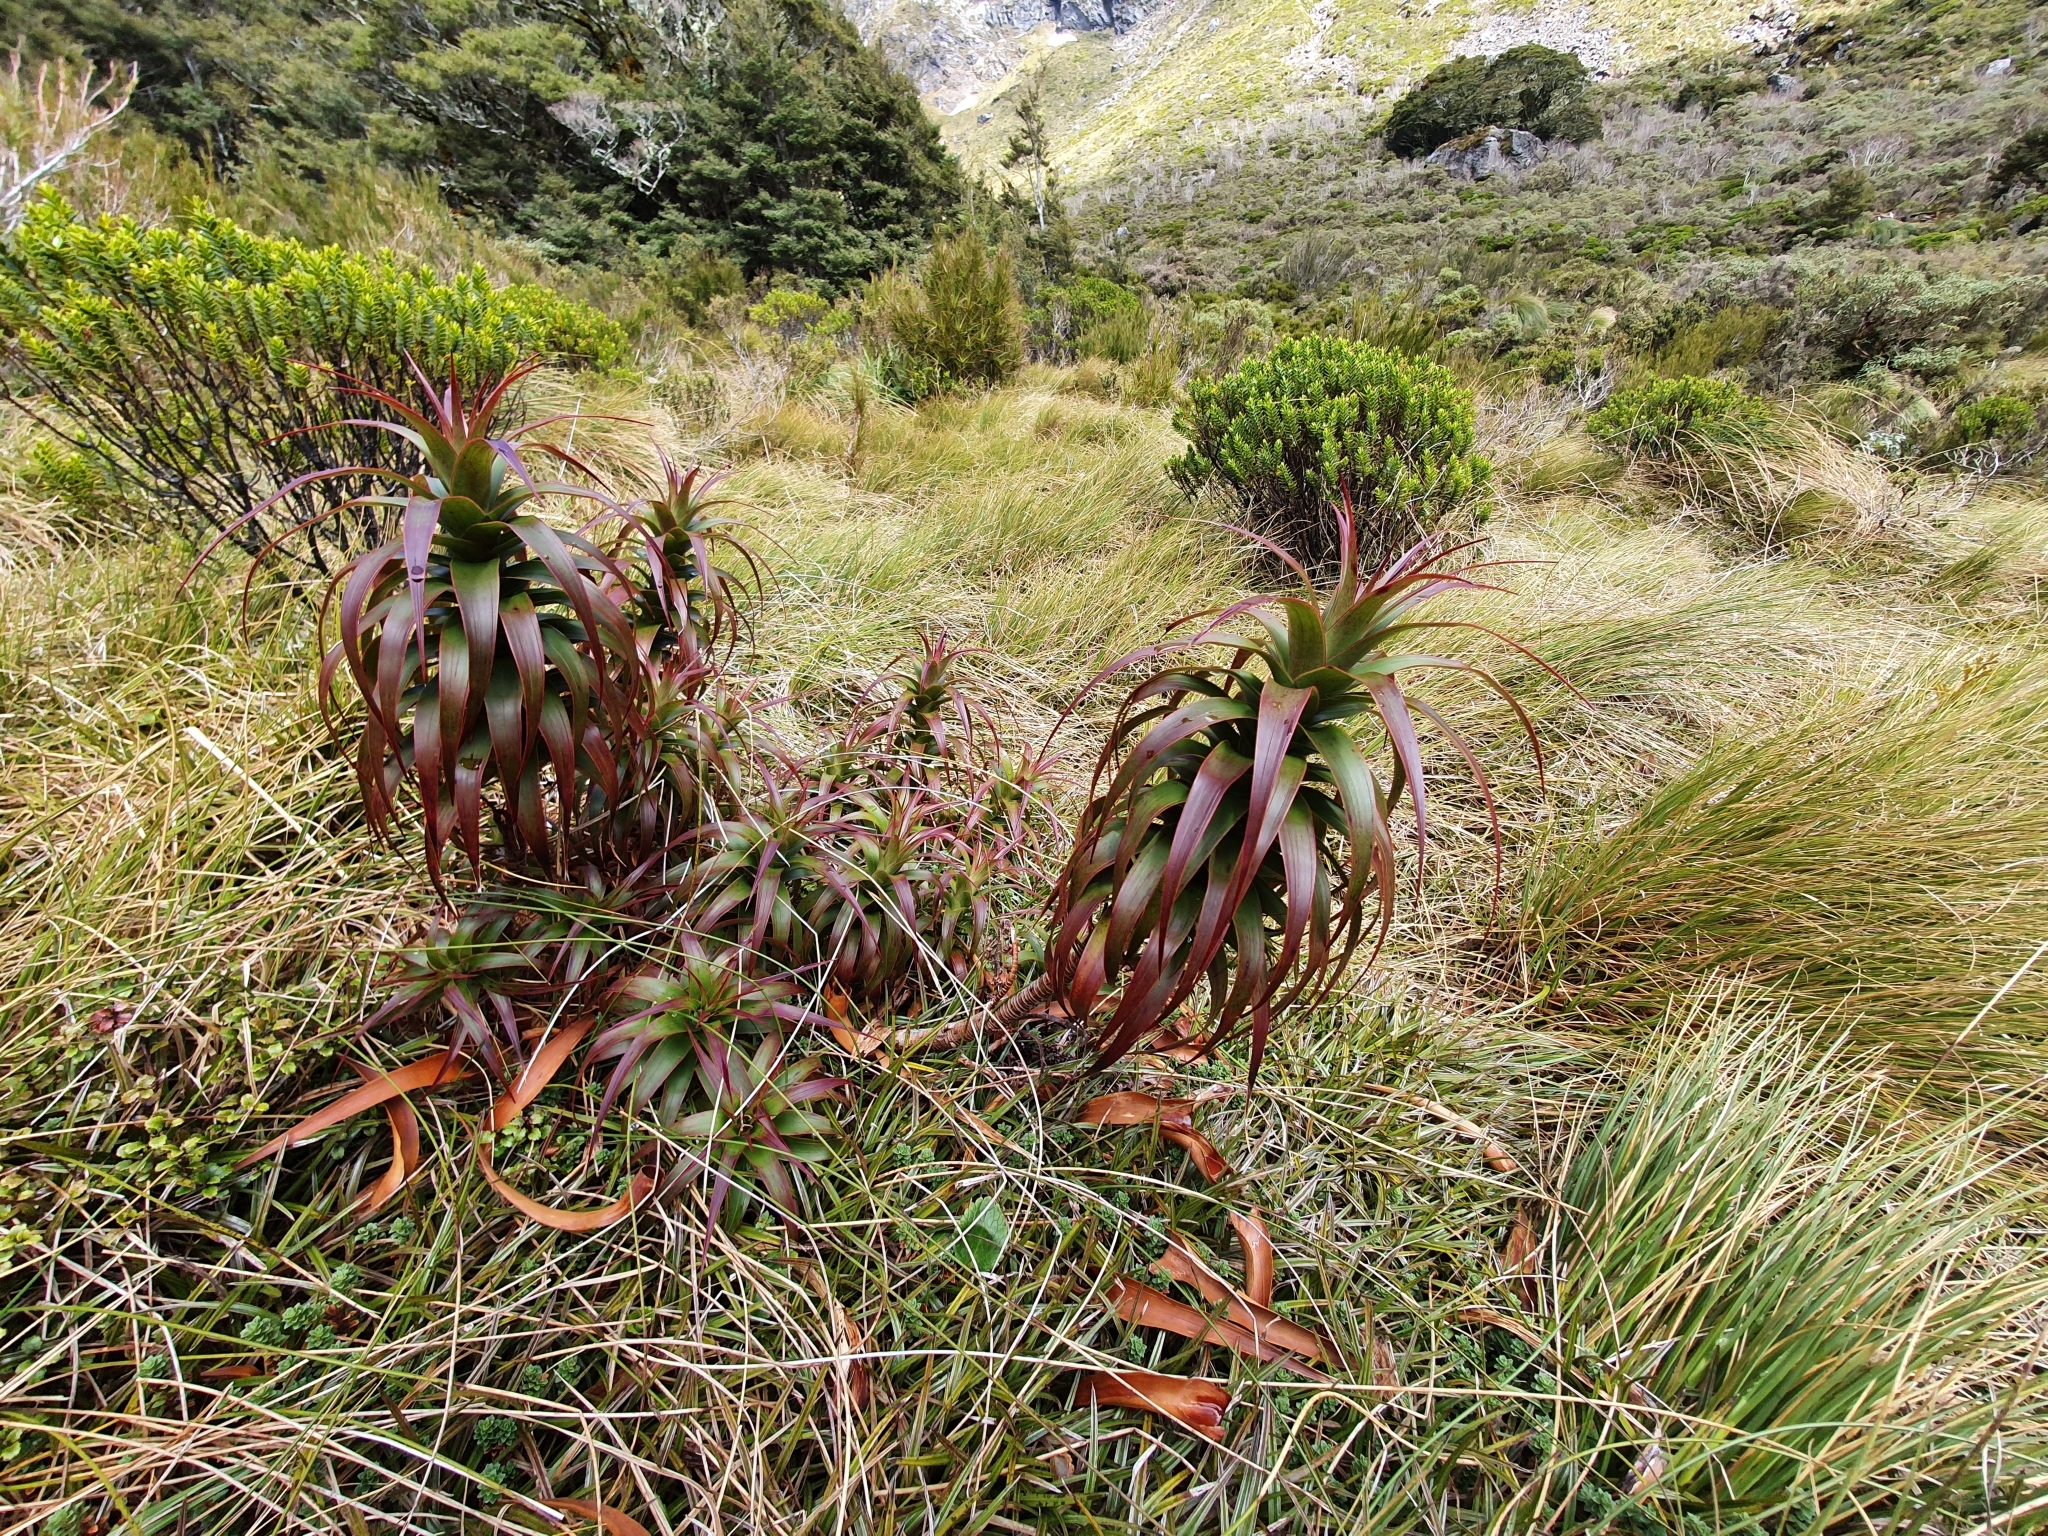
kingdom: Plantae
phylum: Tracheophyta
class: Magnoliopsida
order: Ericales
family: Ericaceae
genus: Dracophyllum
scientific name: Dracophyllum menziesii
